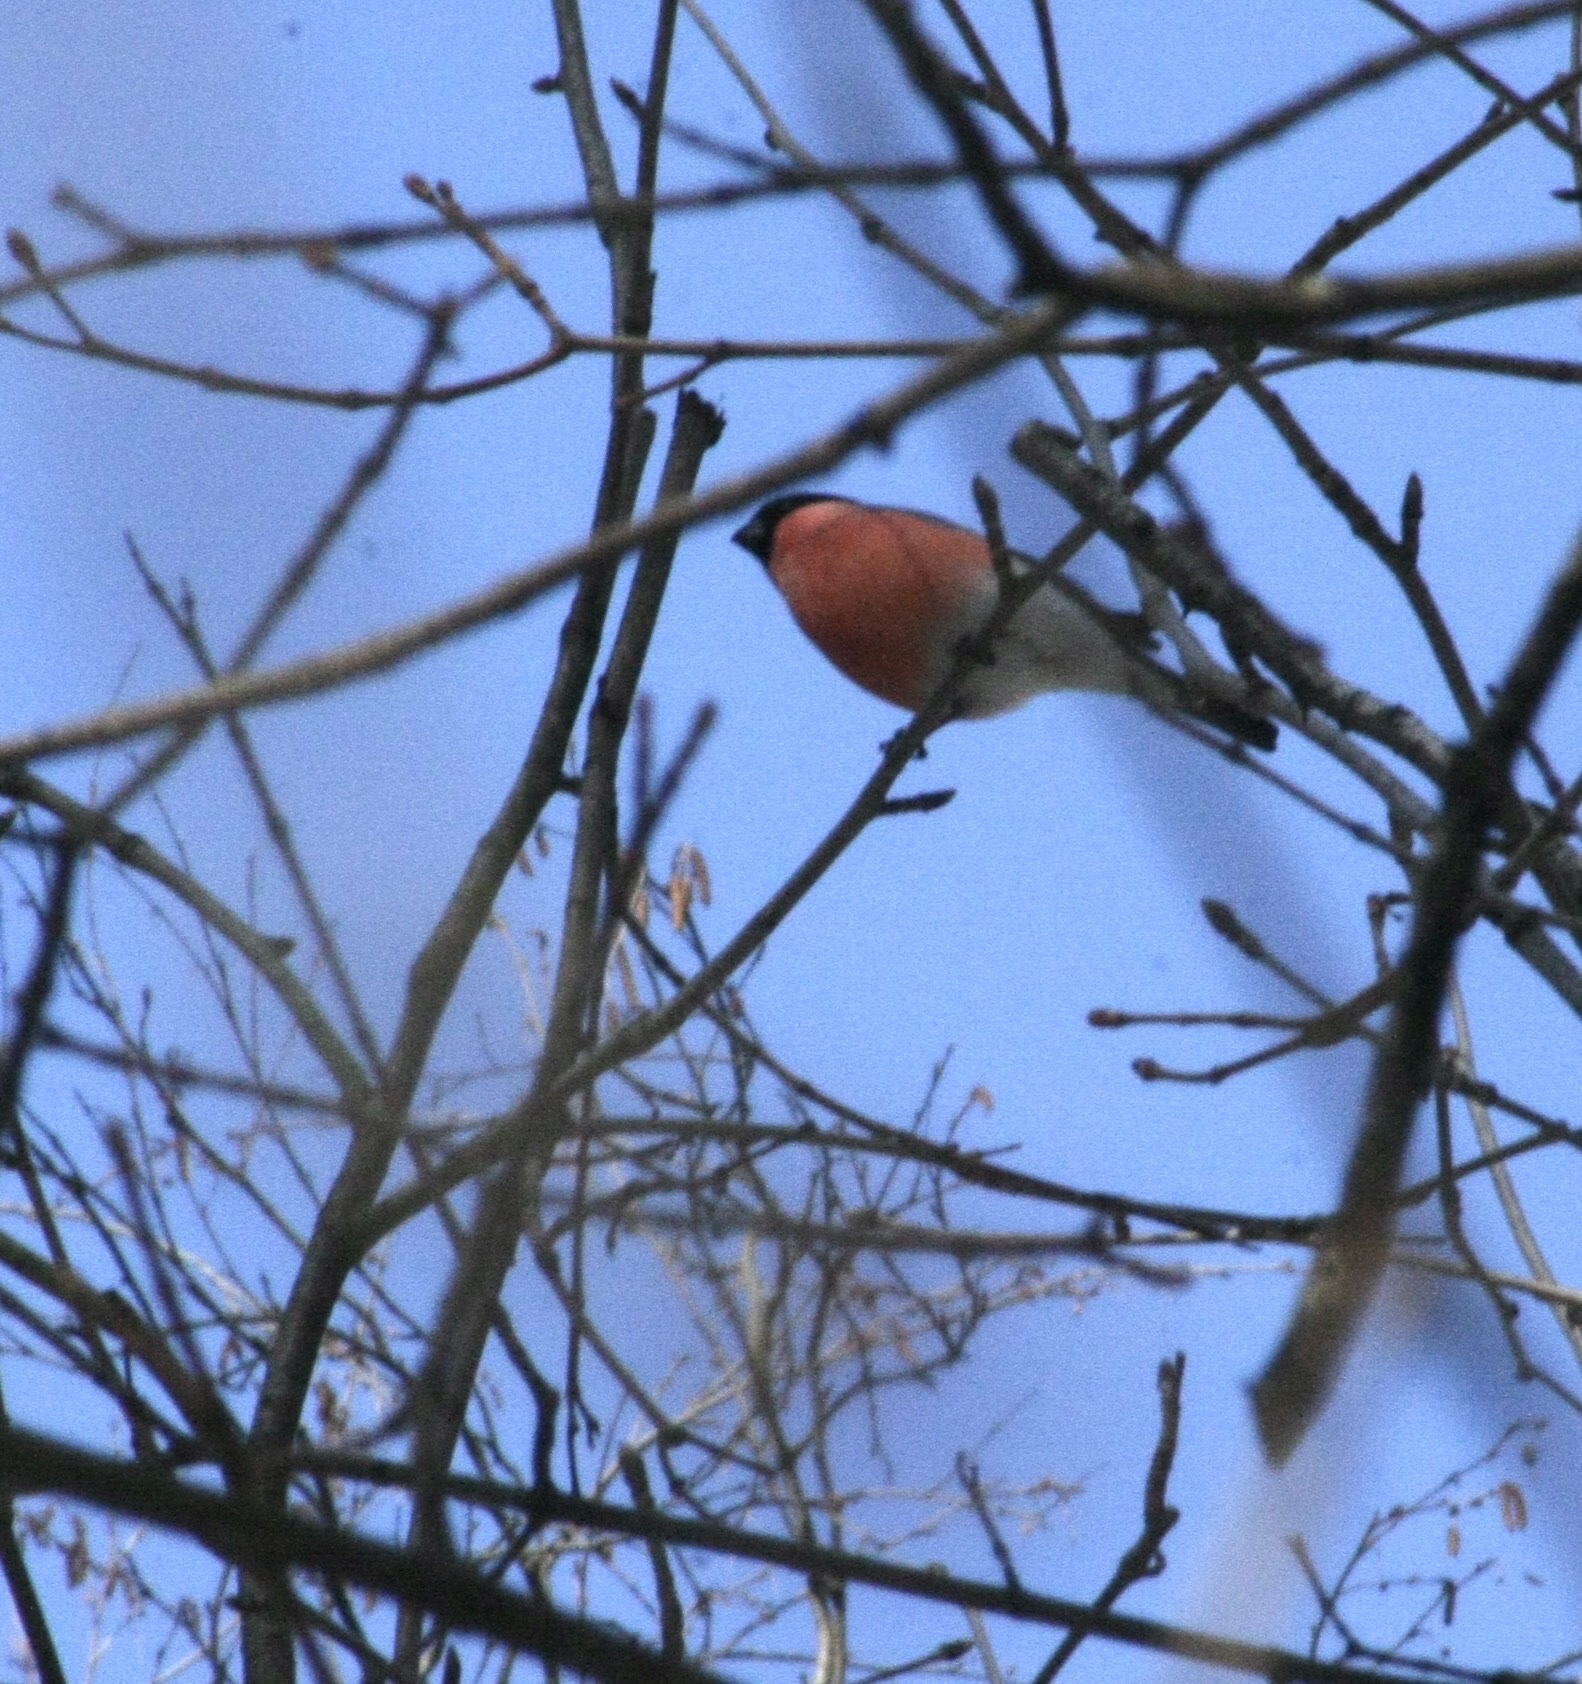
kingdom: Animalia
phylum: Chordata
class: Aves
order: Passeriformes
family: Fringillidae
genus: Pyrrhula
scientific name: Pyrrhula pyrrhula
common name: Eurasian bullfinch
